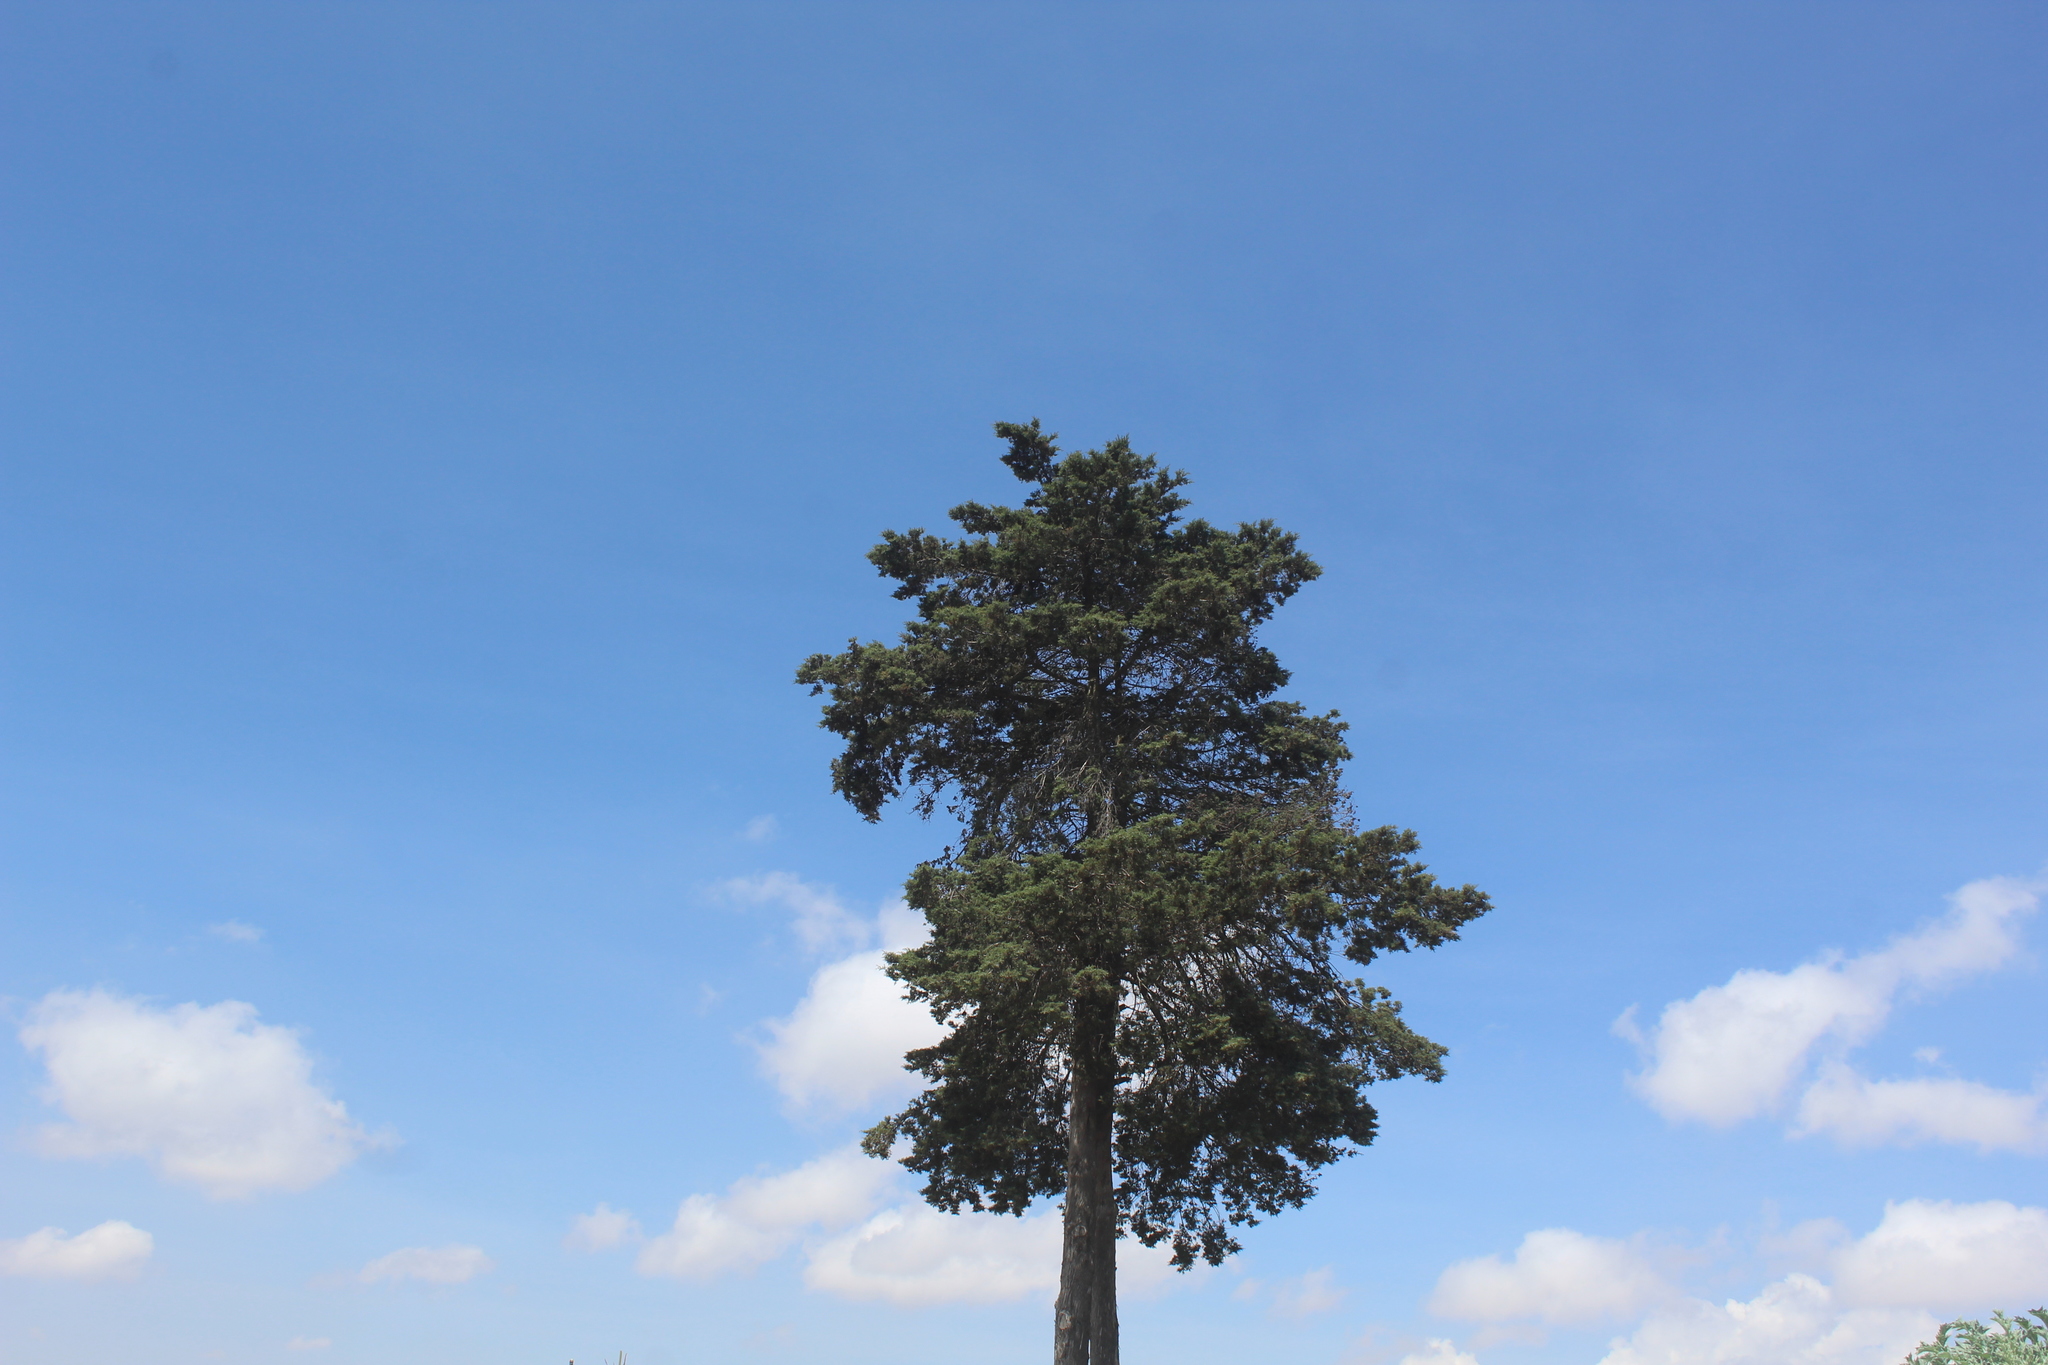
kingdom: Plantae
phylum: Tracheophyta
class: Pinopsida
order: Pinales
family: Cupressaceae
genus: Cupressus
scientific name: Cupressus lusitanica
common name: Mexican cypress
